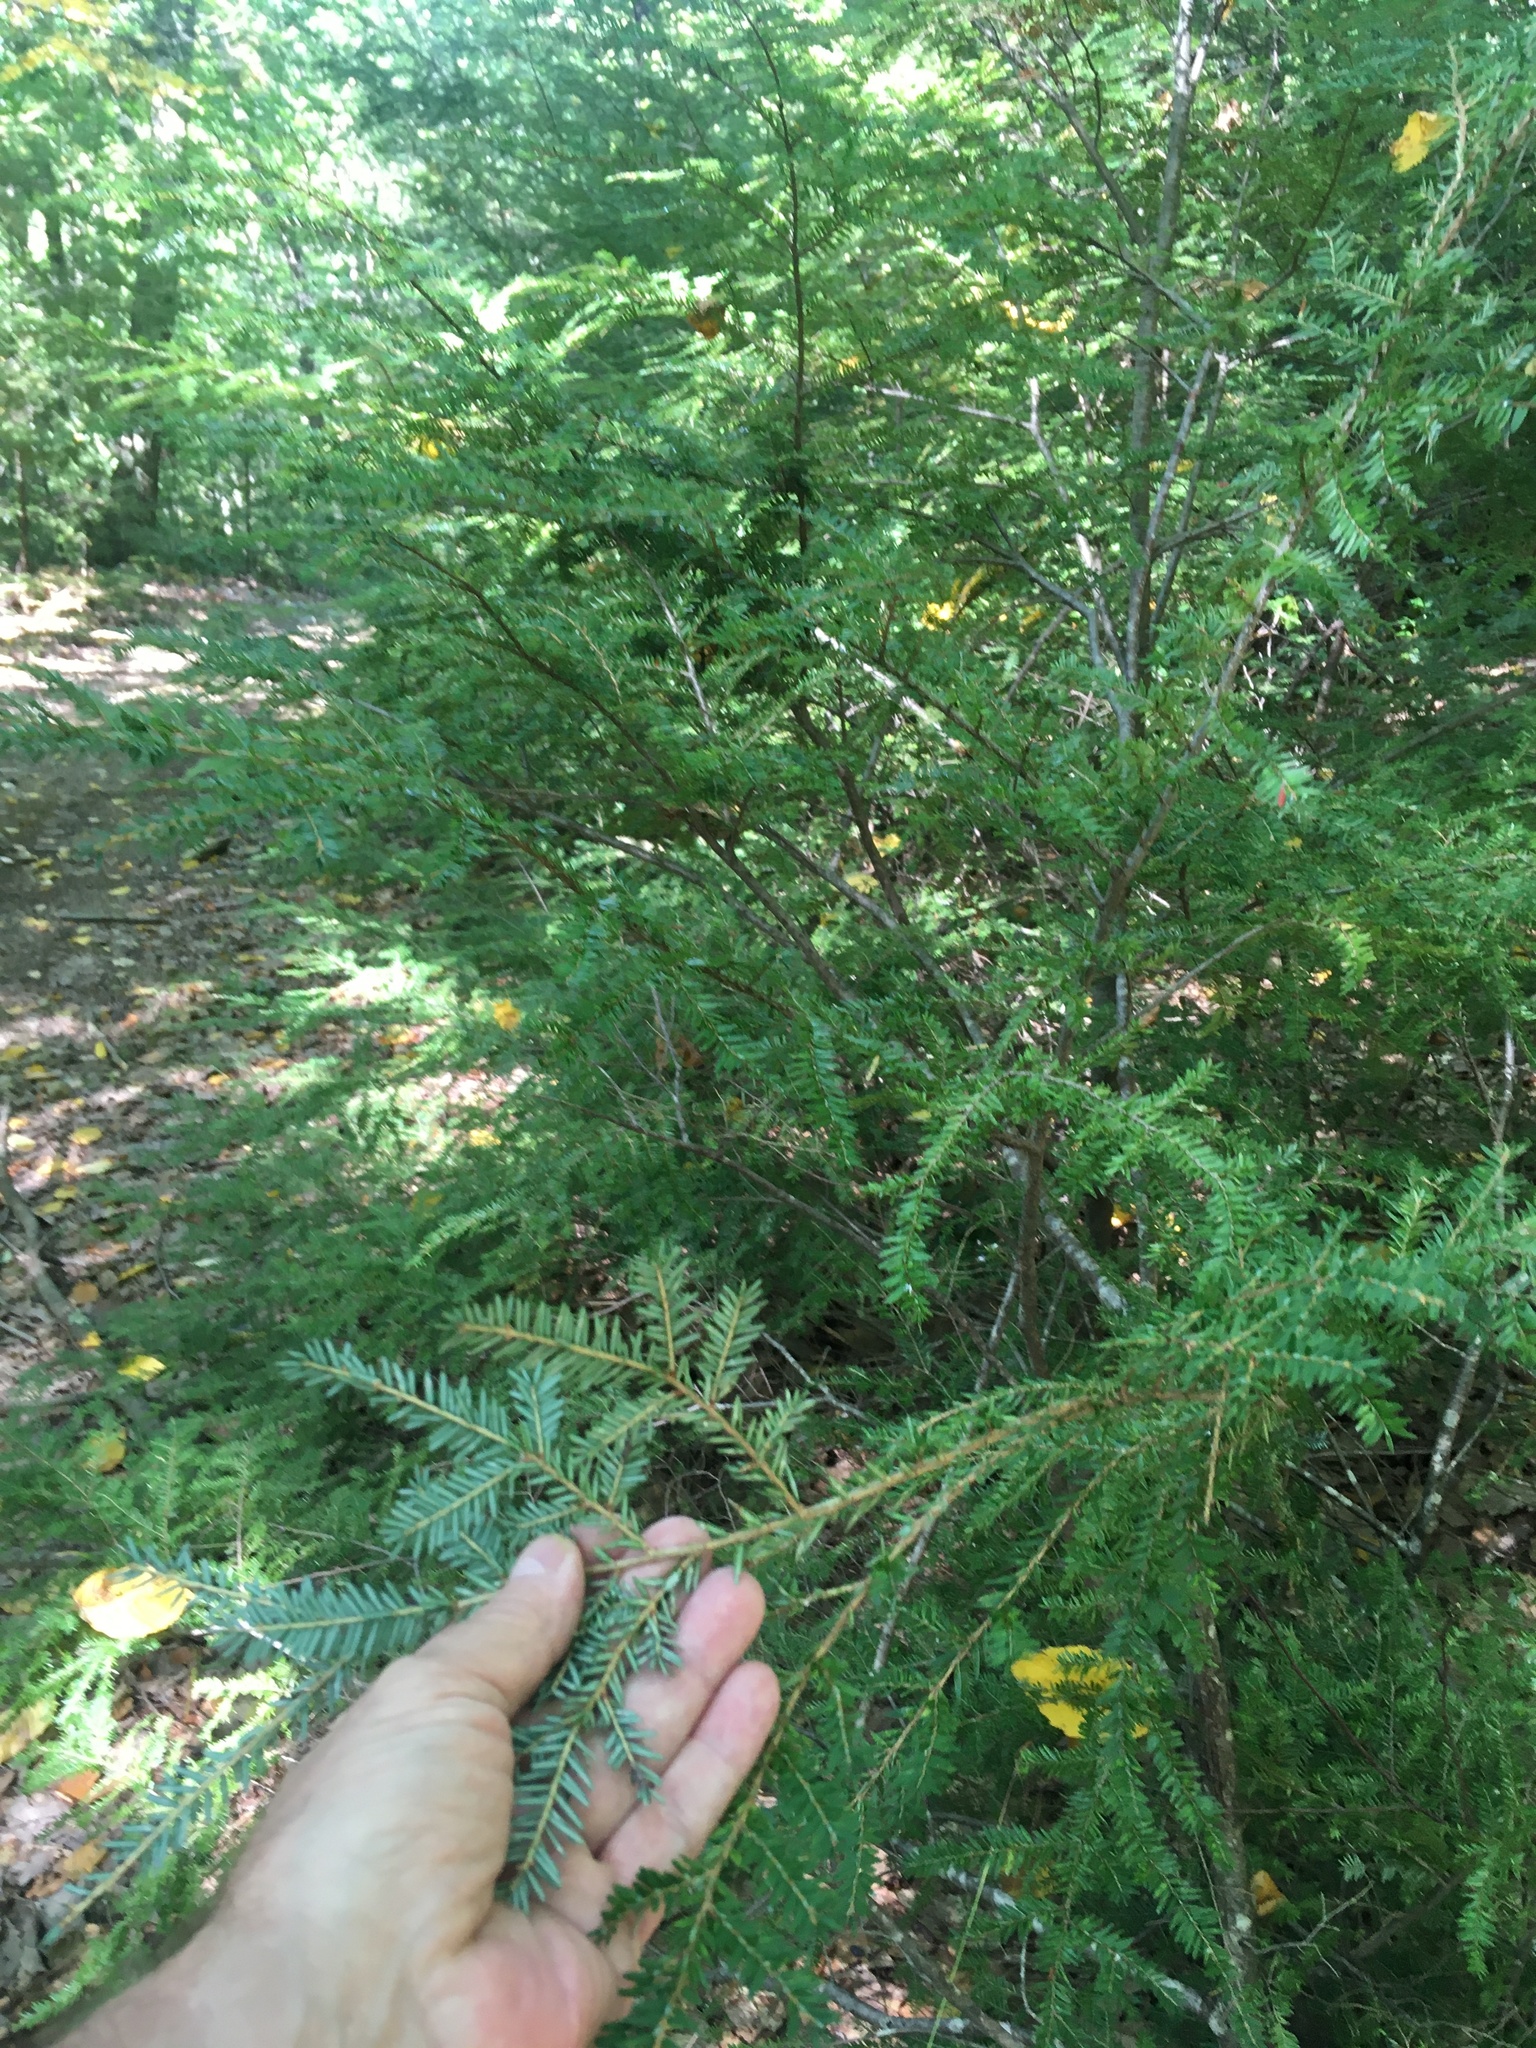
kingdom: Plantae
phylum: Tracheophyta
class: Pinopsida
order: Pinales
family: Pinaceae
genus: Tsuga
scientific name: Tsuga canadensis
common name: Eastern hemlock
